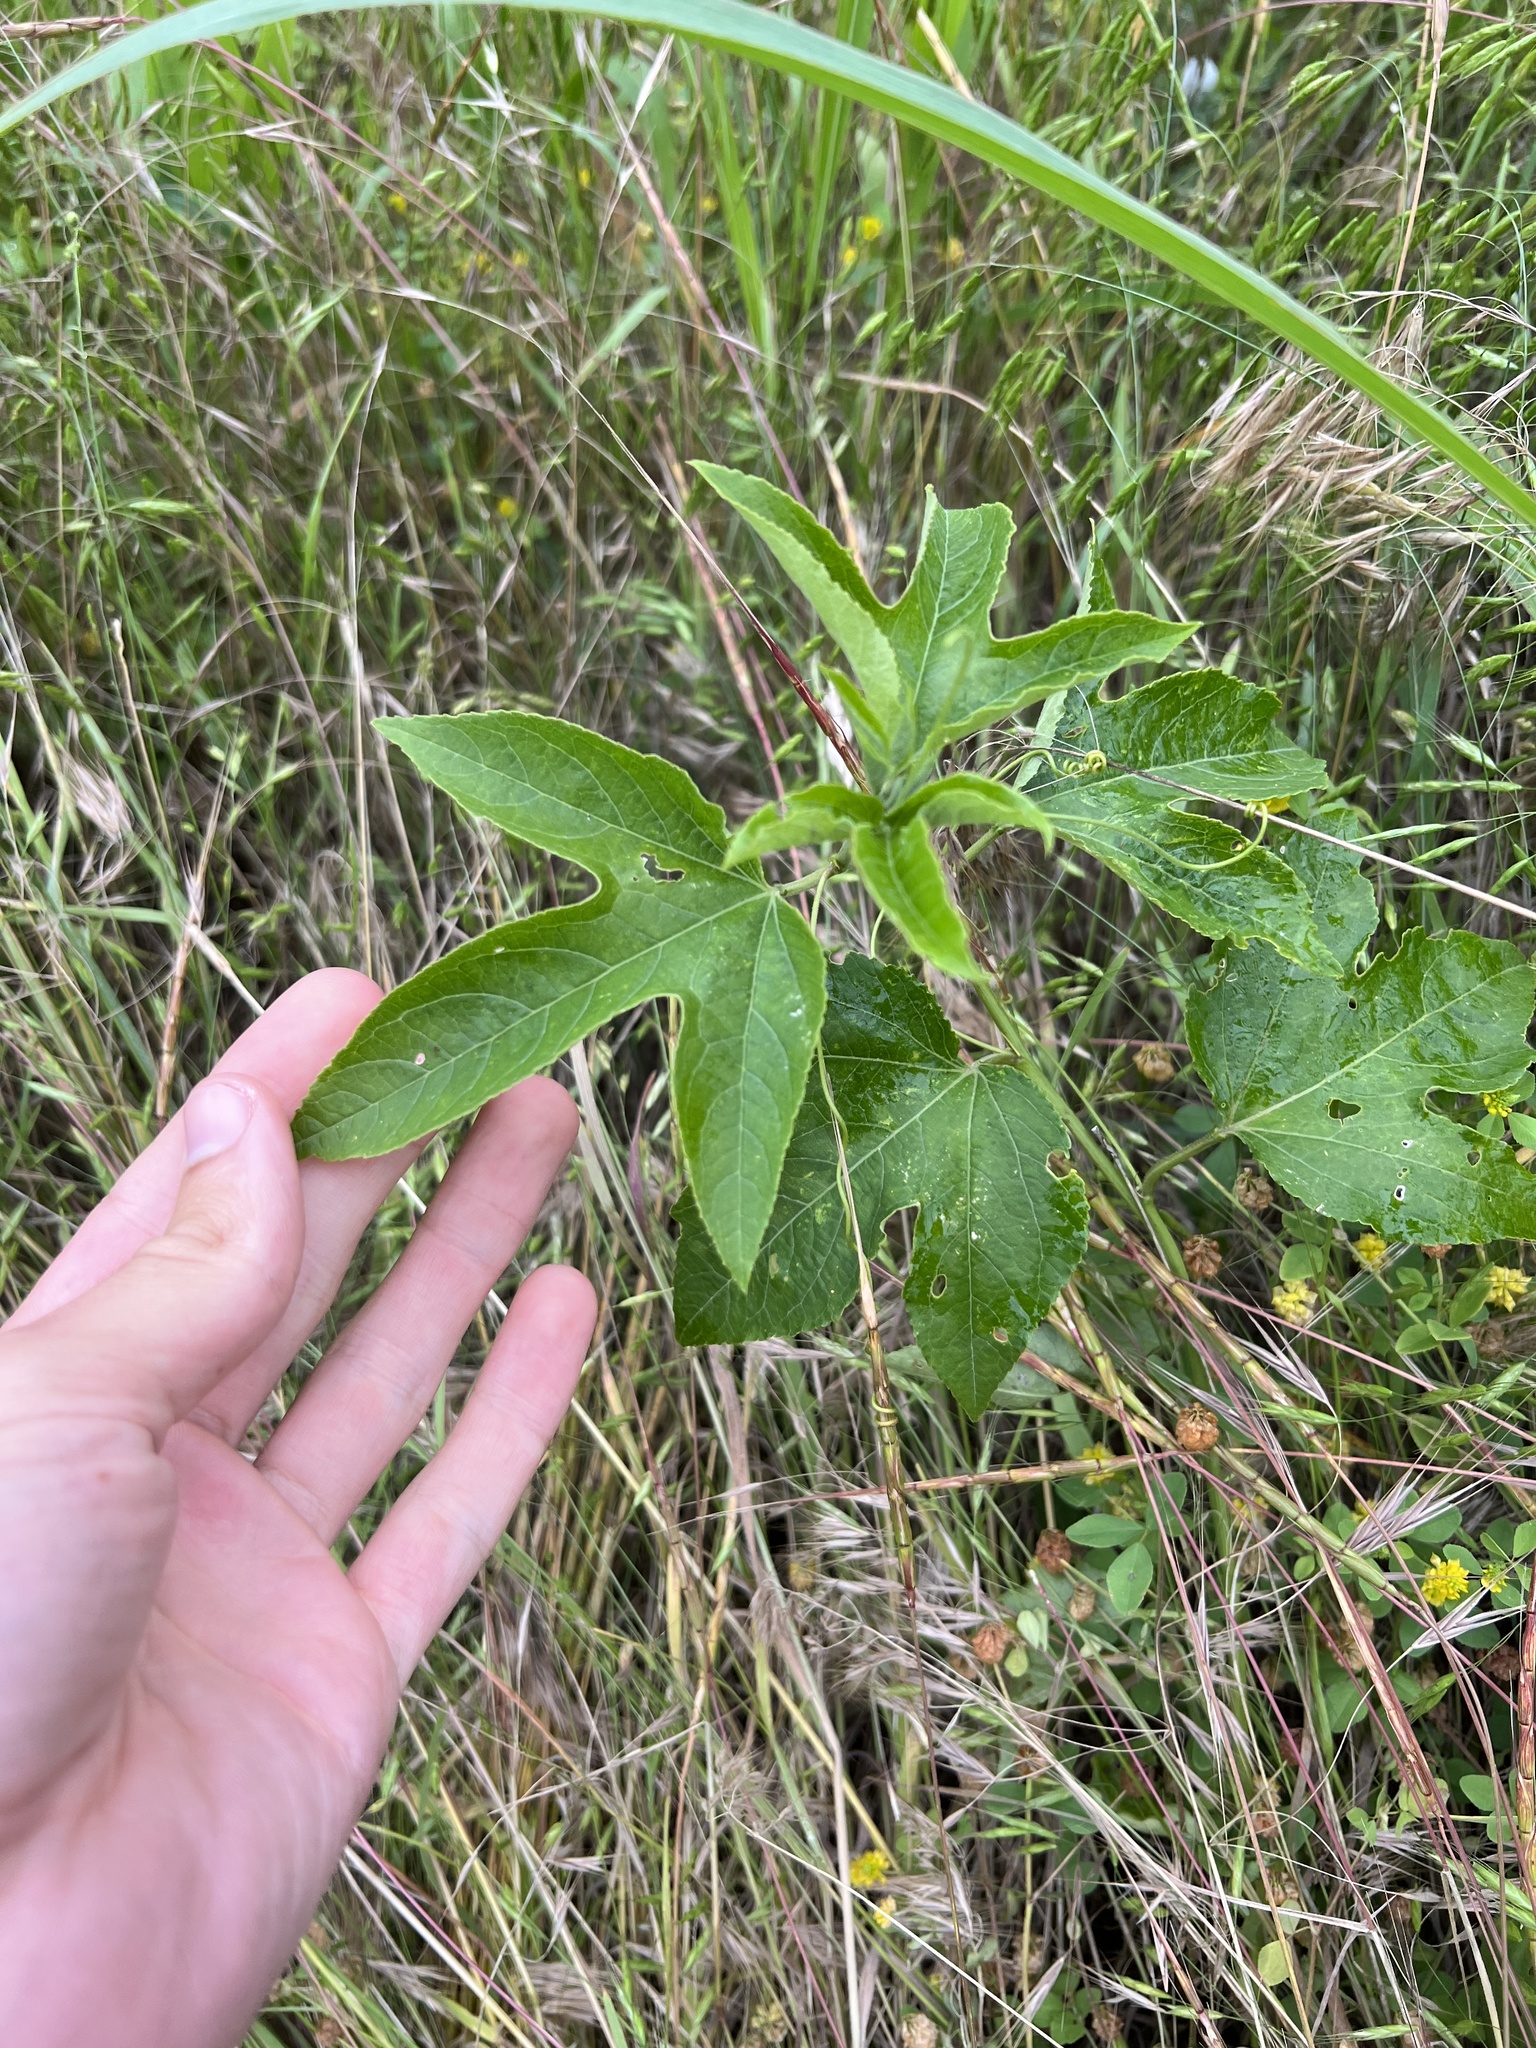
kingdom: Plantae
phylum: Tracheophyta
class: Magnoliopsida
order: Malpighiales
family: Passifloraceae
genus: Passiflora
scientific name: Passiflora incarnata
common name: Apricot-vine
